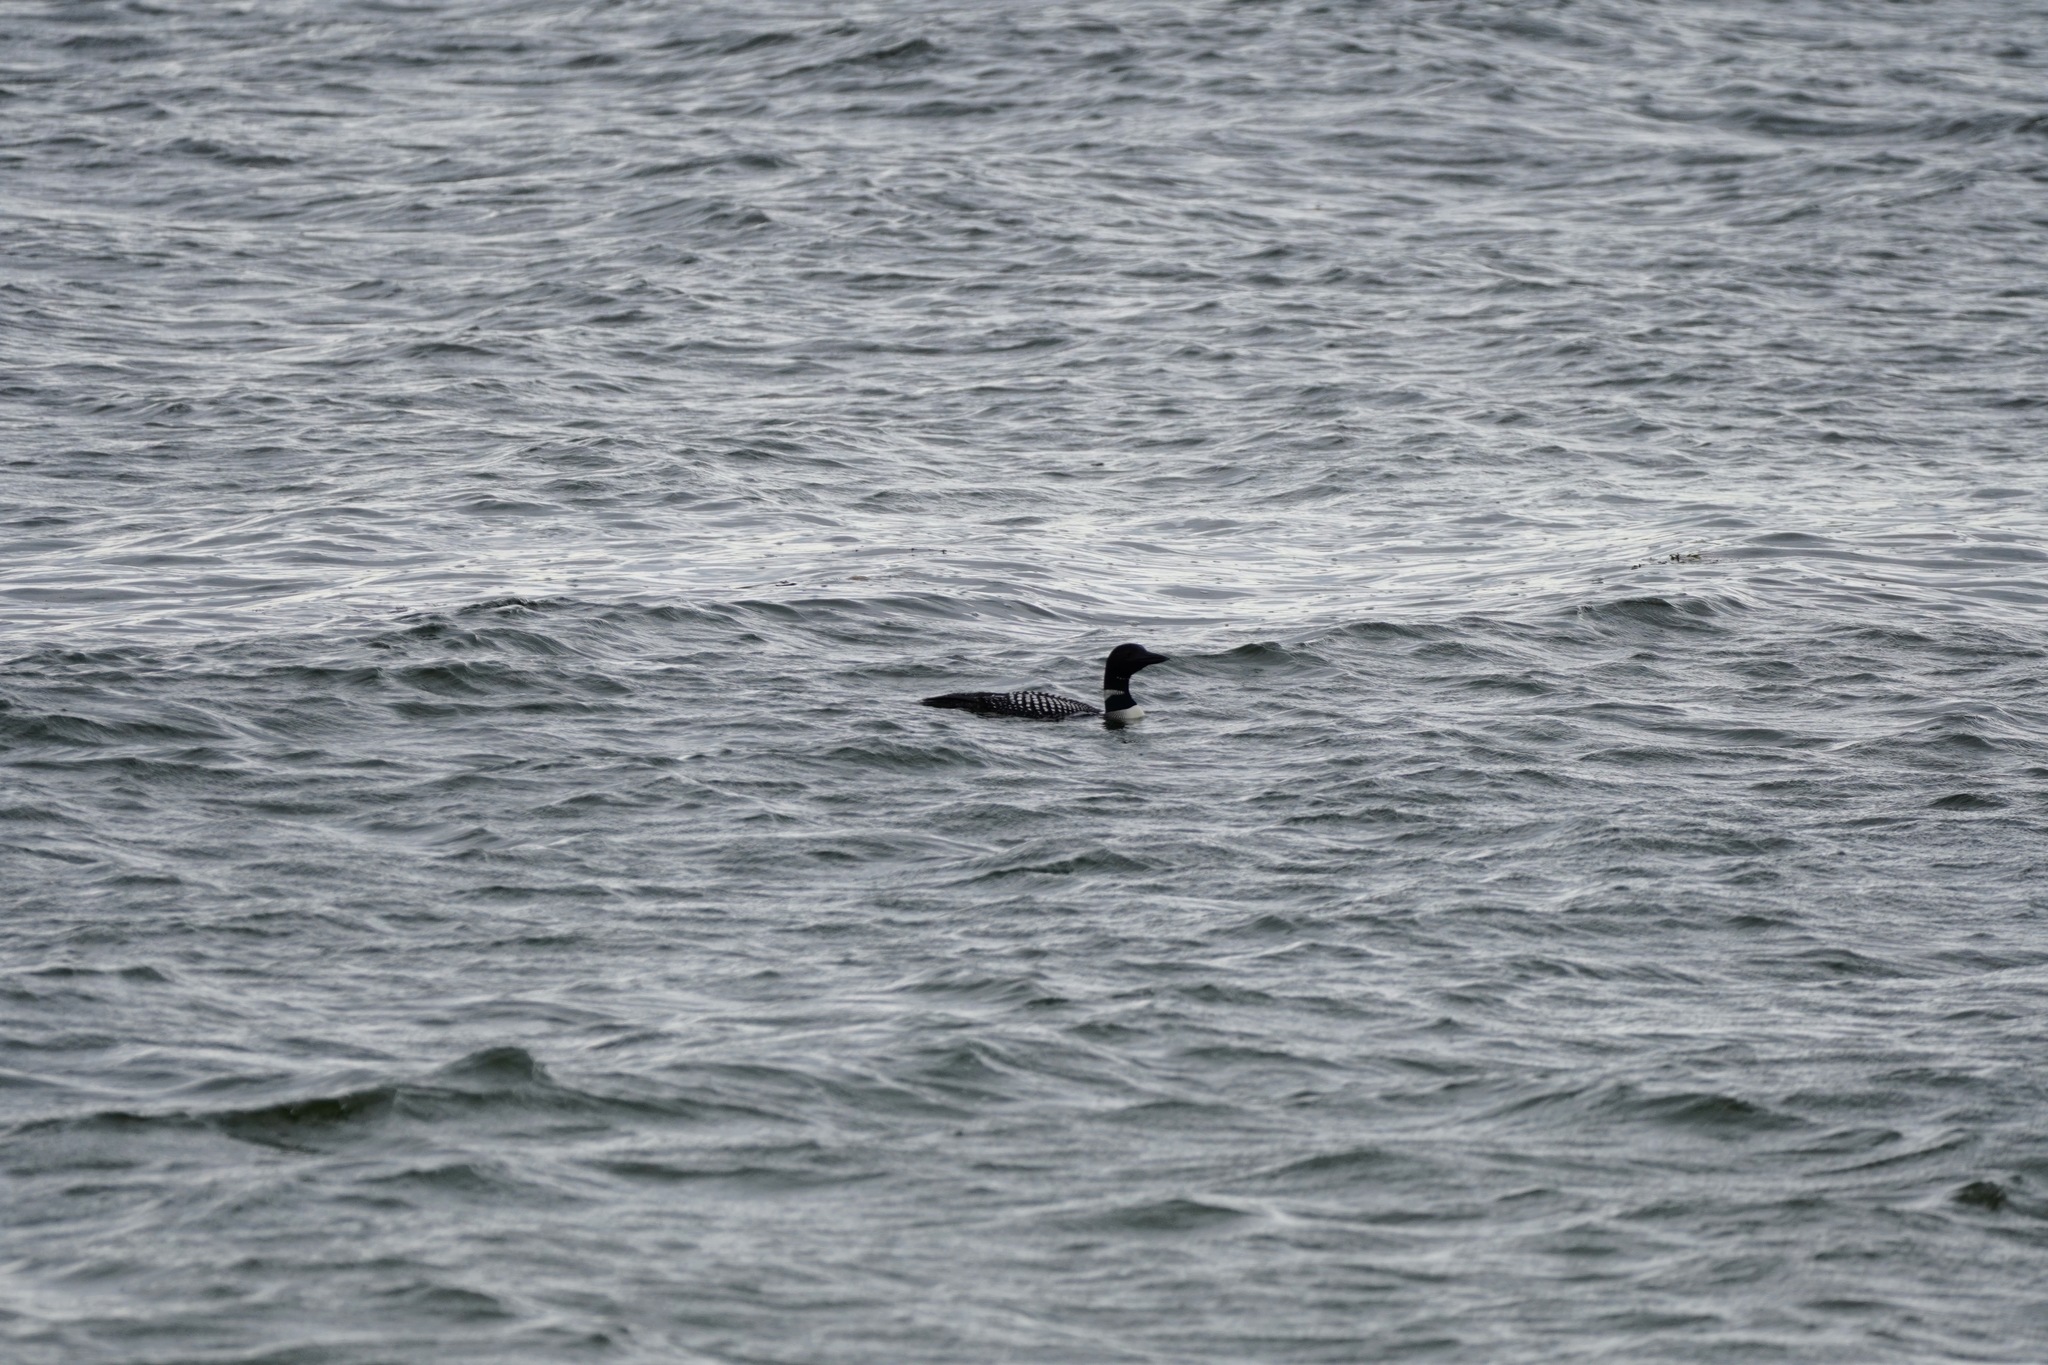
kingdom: Animalia
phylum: Chordata
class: Aves
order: Gaviiformes
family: Gaviidae
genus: Gavia
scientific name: Gavia immer
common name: Common loon
